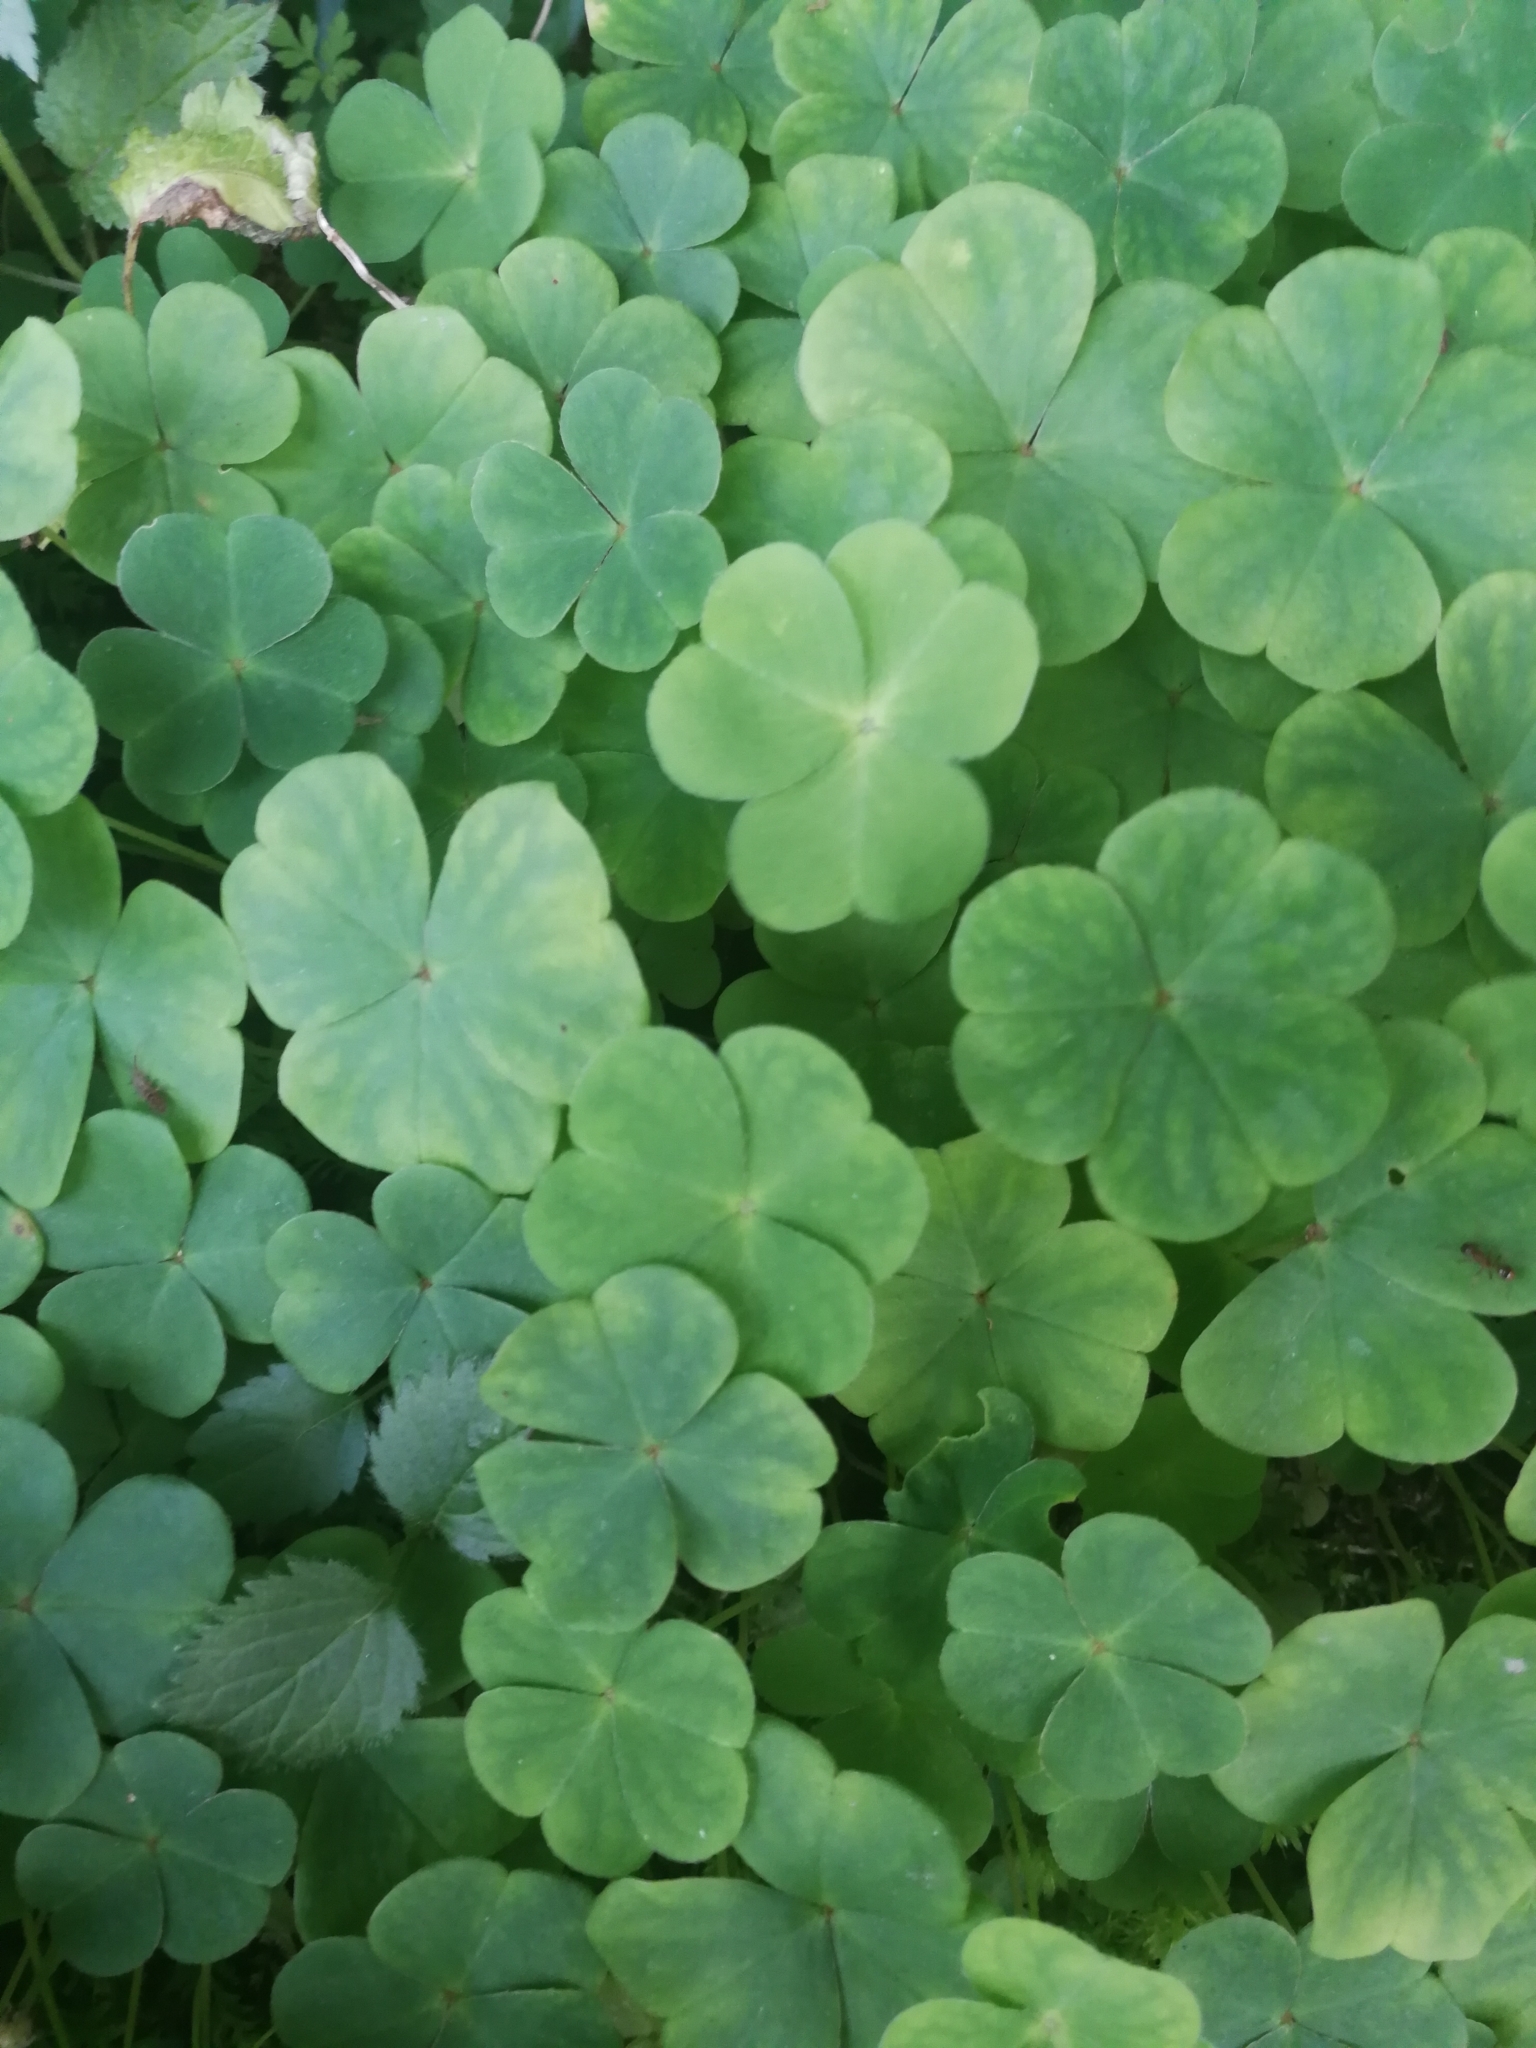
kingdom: Plantae
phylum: Tracheophyta
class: Magnoliopsida
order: Oxalidales
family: Oxalidaceae
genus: Oxalis
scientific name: Oxalis acetosella
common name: Wood-sorrel
